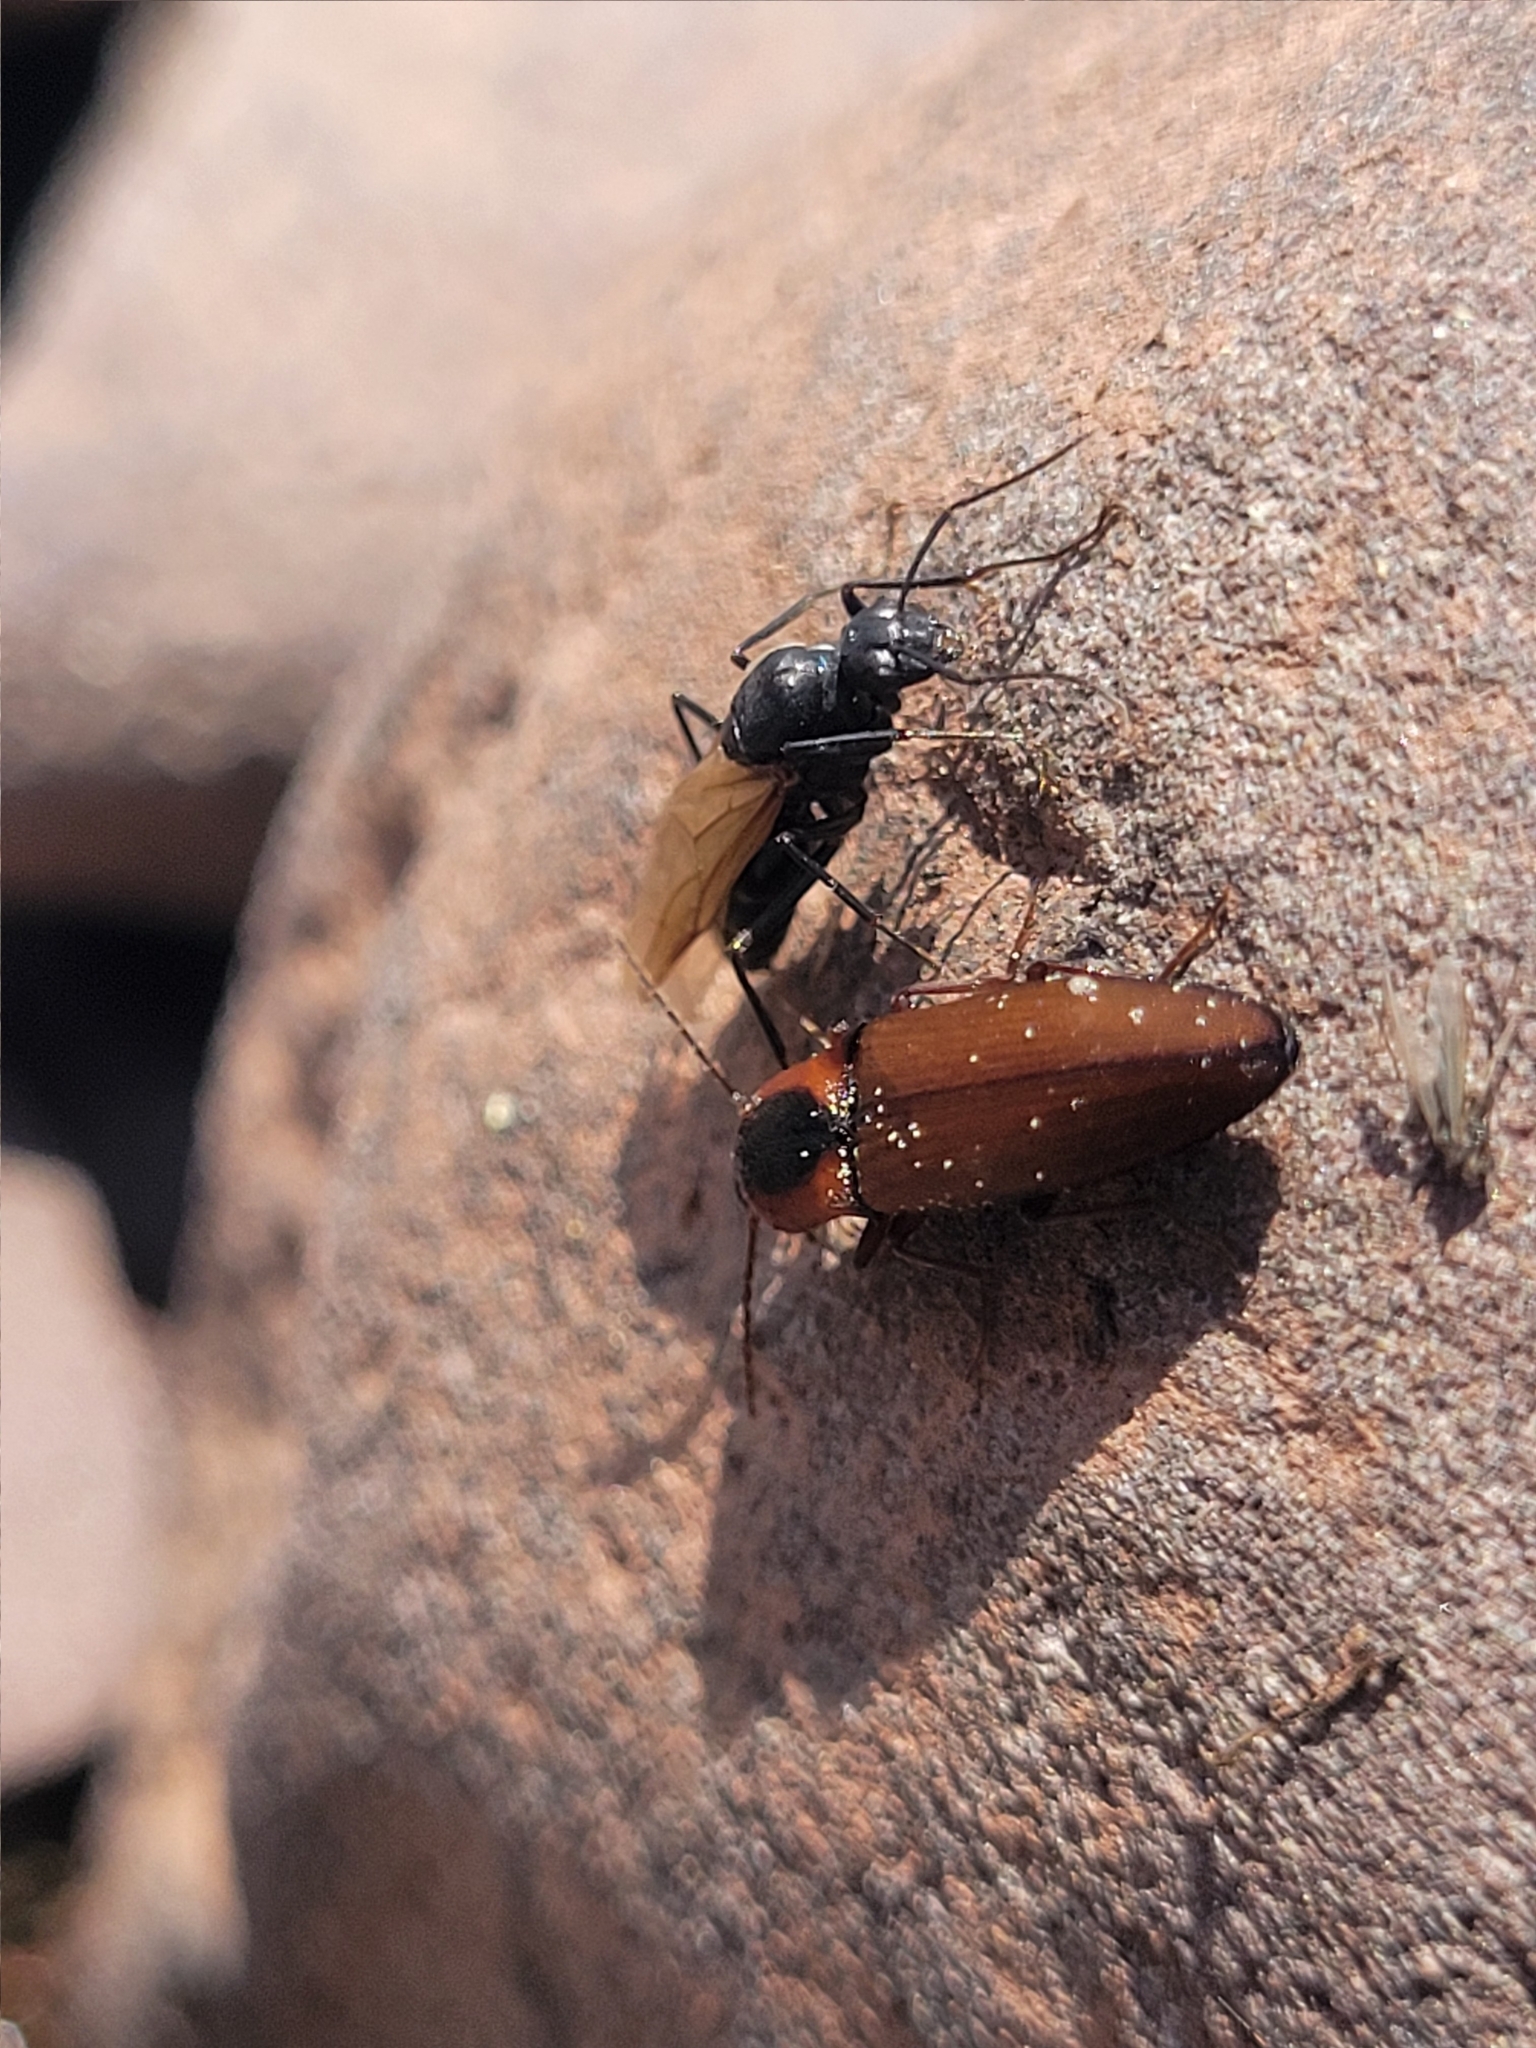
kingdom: Animalia
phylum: Arthropoda
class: Insecta
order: Coleoptera
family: Elateridae
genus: Agriotes
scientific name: Agriotes collaris
